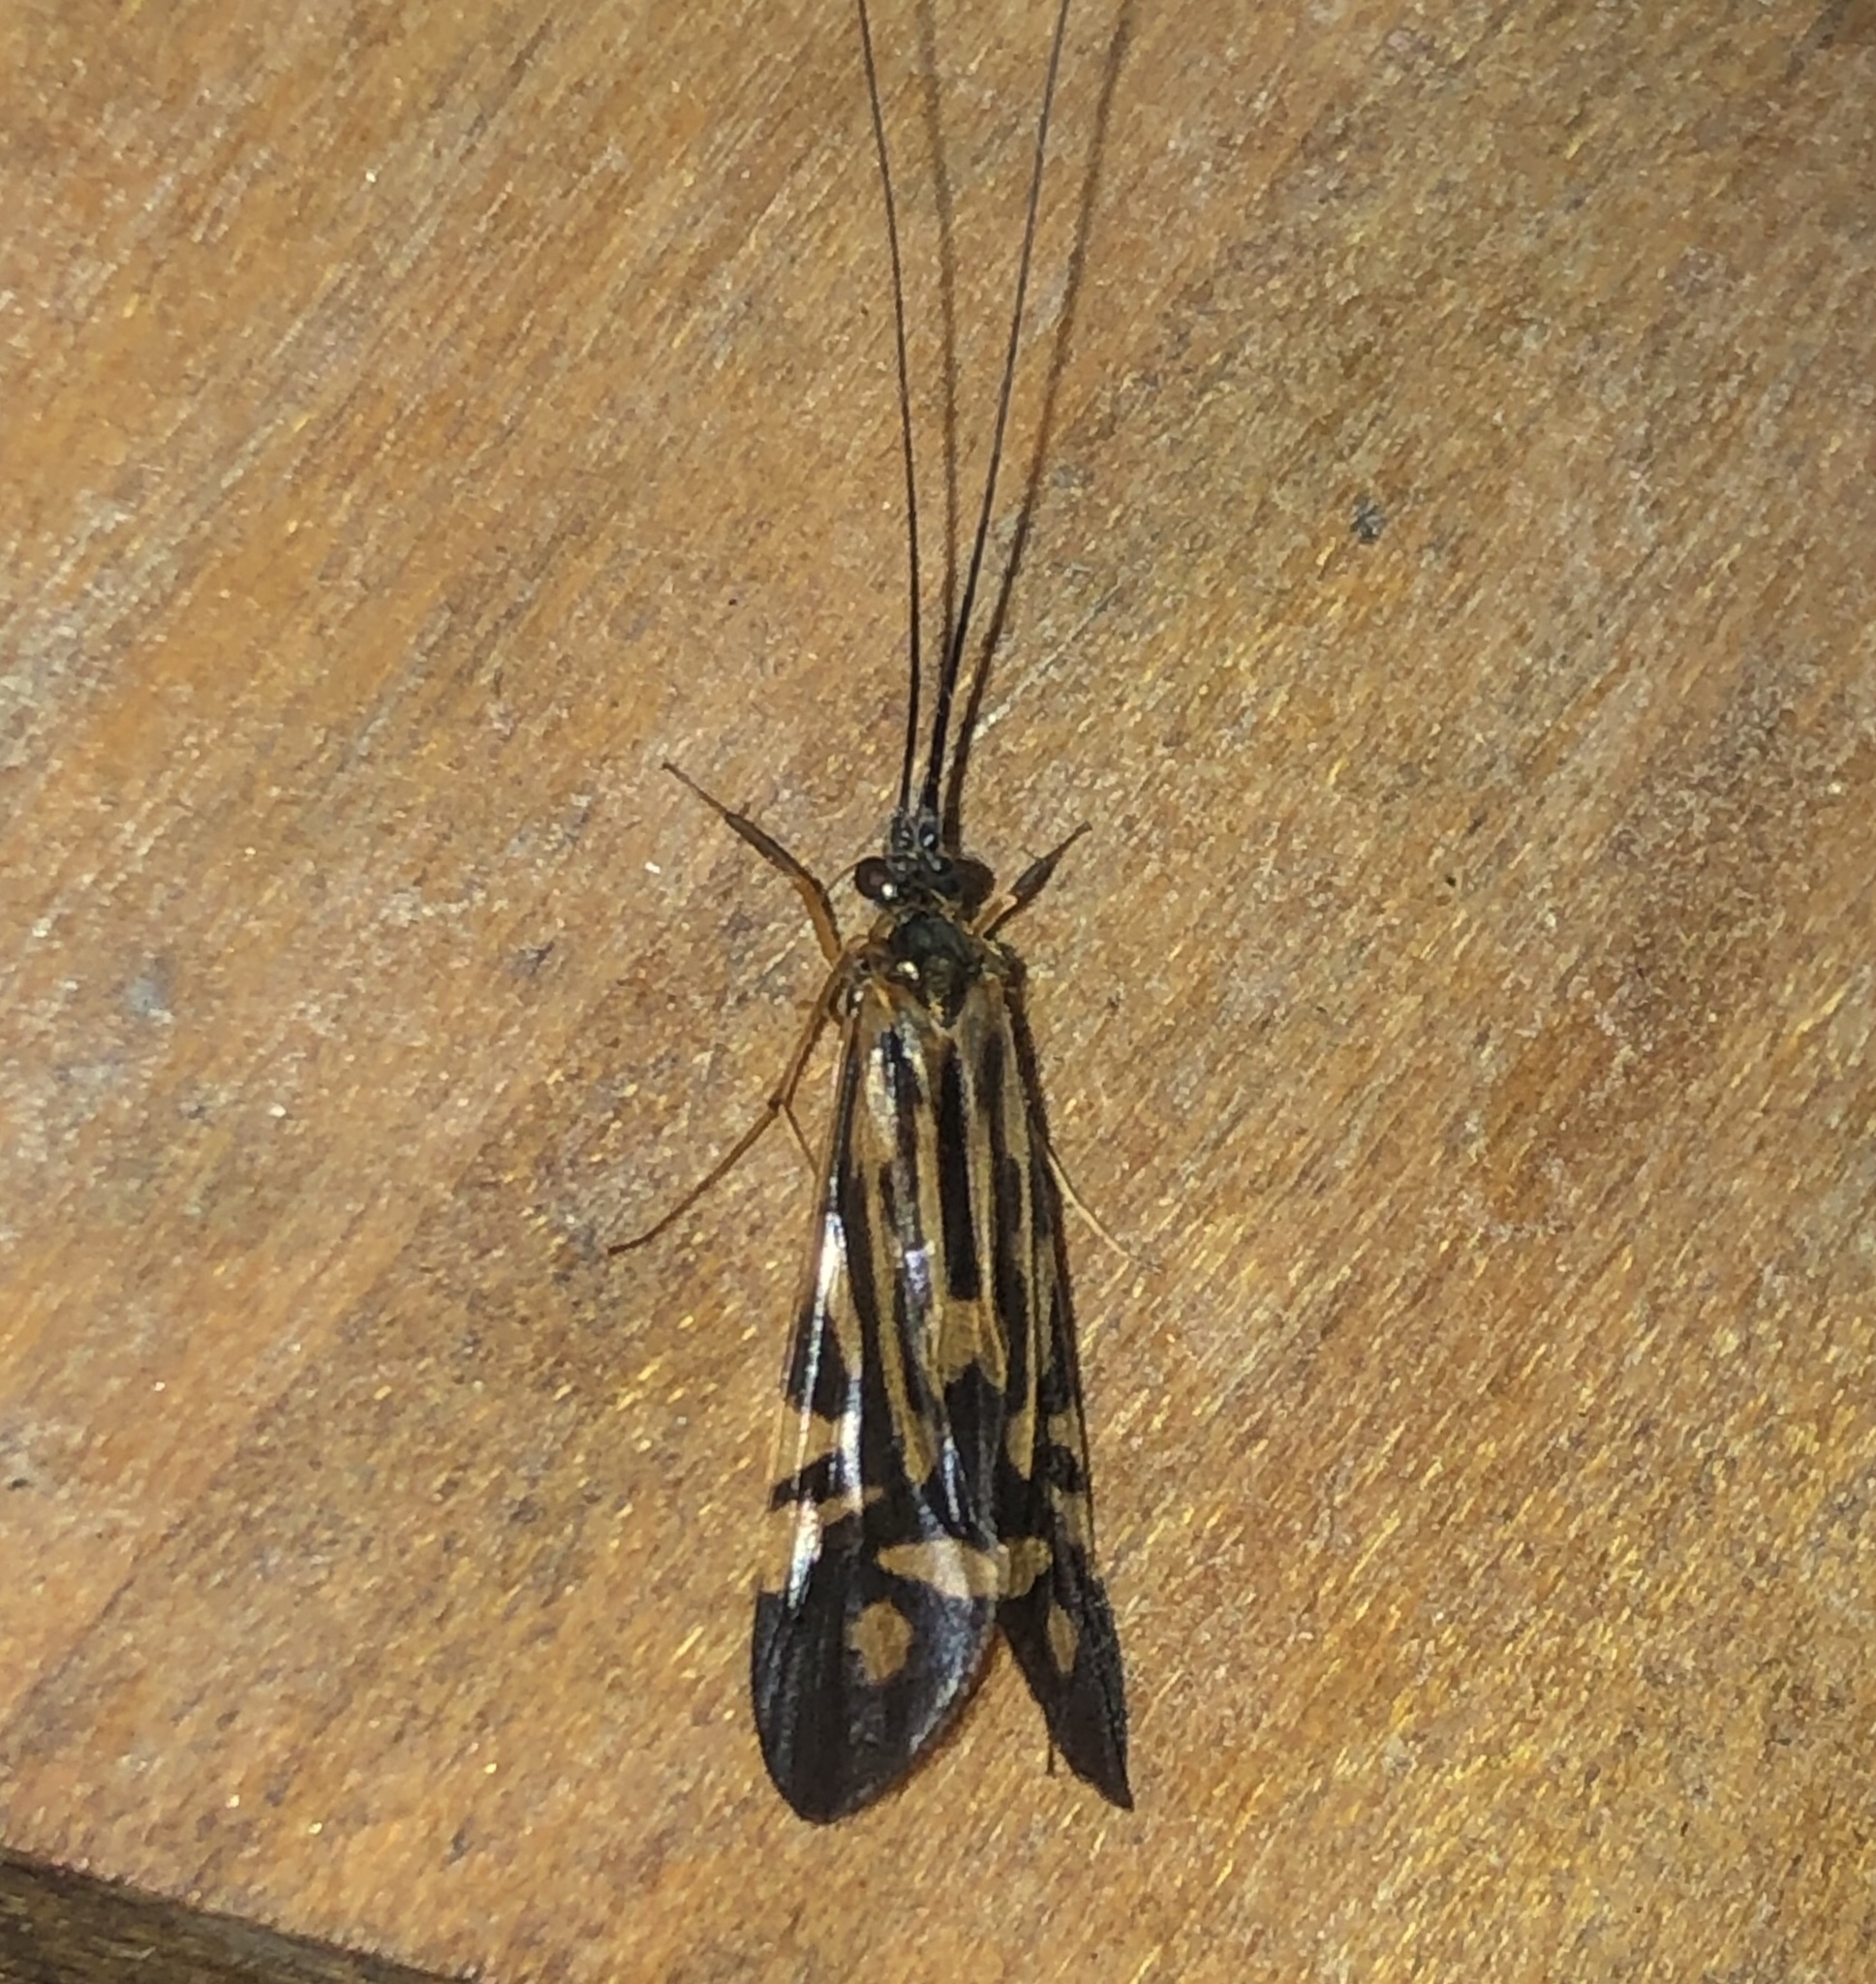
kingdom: Animalia
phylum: Arthropoda
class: Insecta
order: Trichoptera
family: Hydropsychidae
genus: Macrostemum
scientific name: Macrostemum zebratum
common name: Zebra caddisfly
